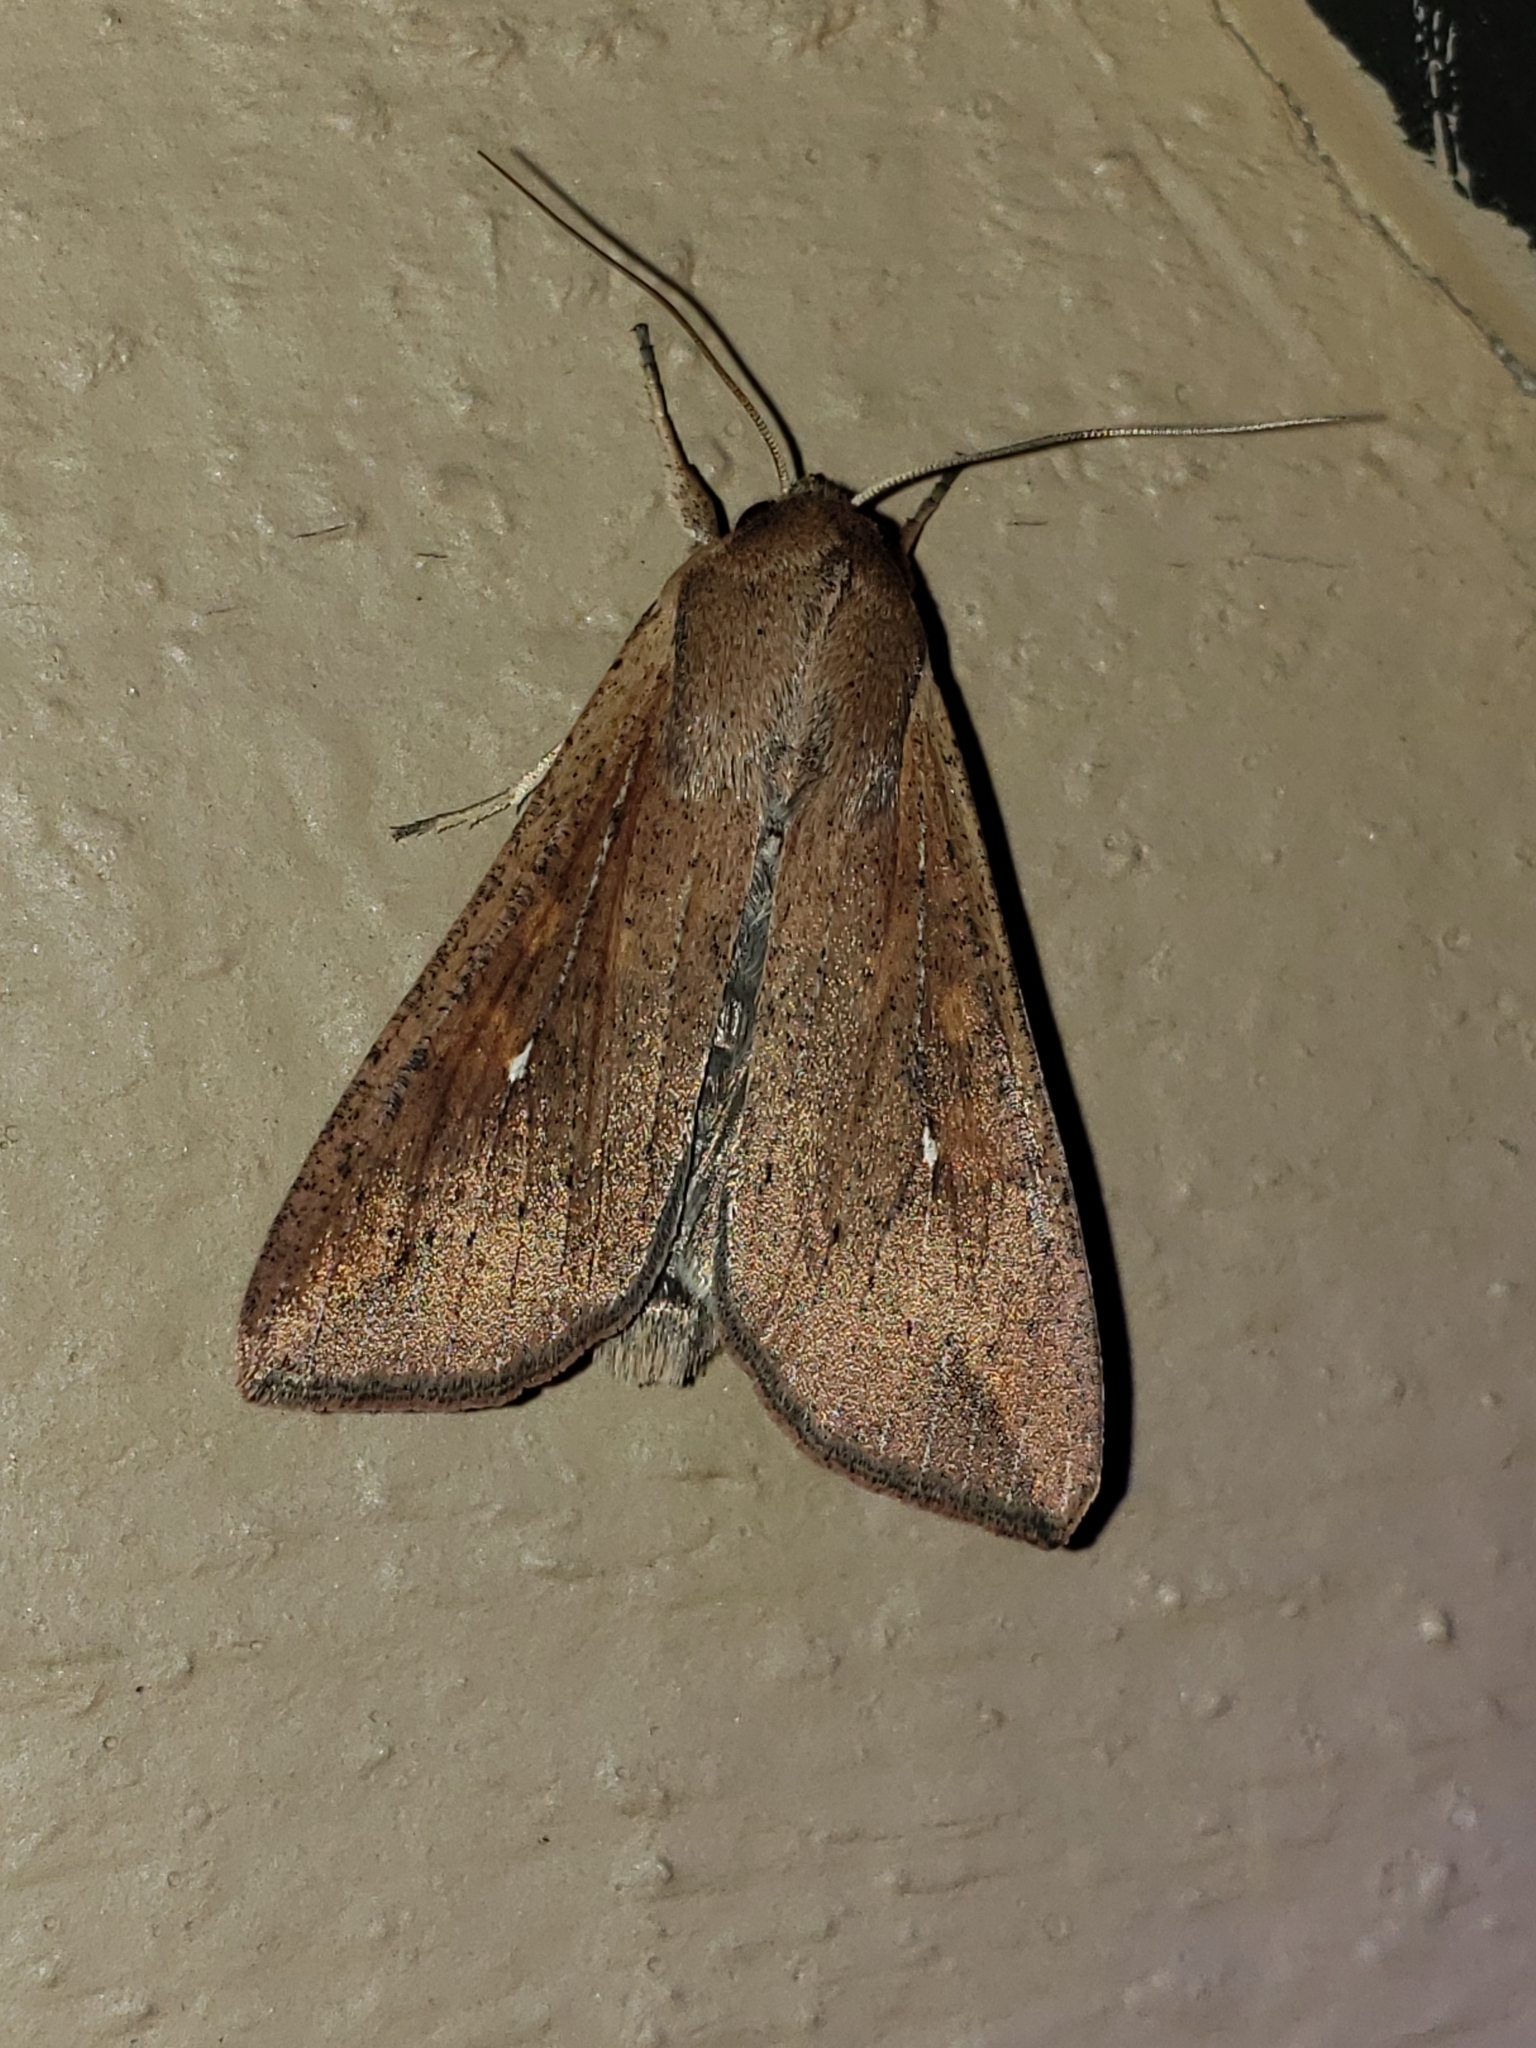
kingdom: Animalia
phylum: Arthropoda
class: Insecta
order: Lepidoptera
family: Noctuidae
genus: Mythimna
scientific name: Mythimna unipuncta
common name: White-speck
